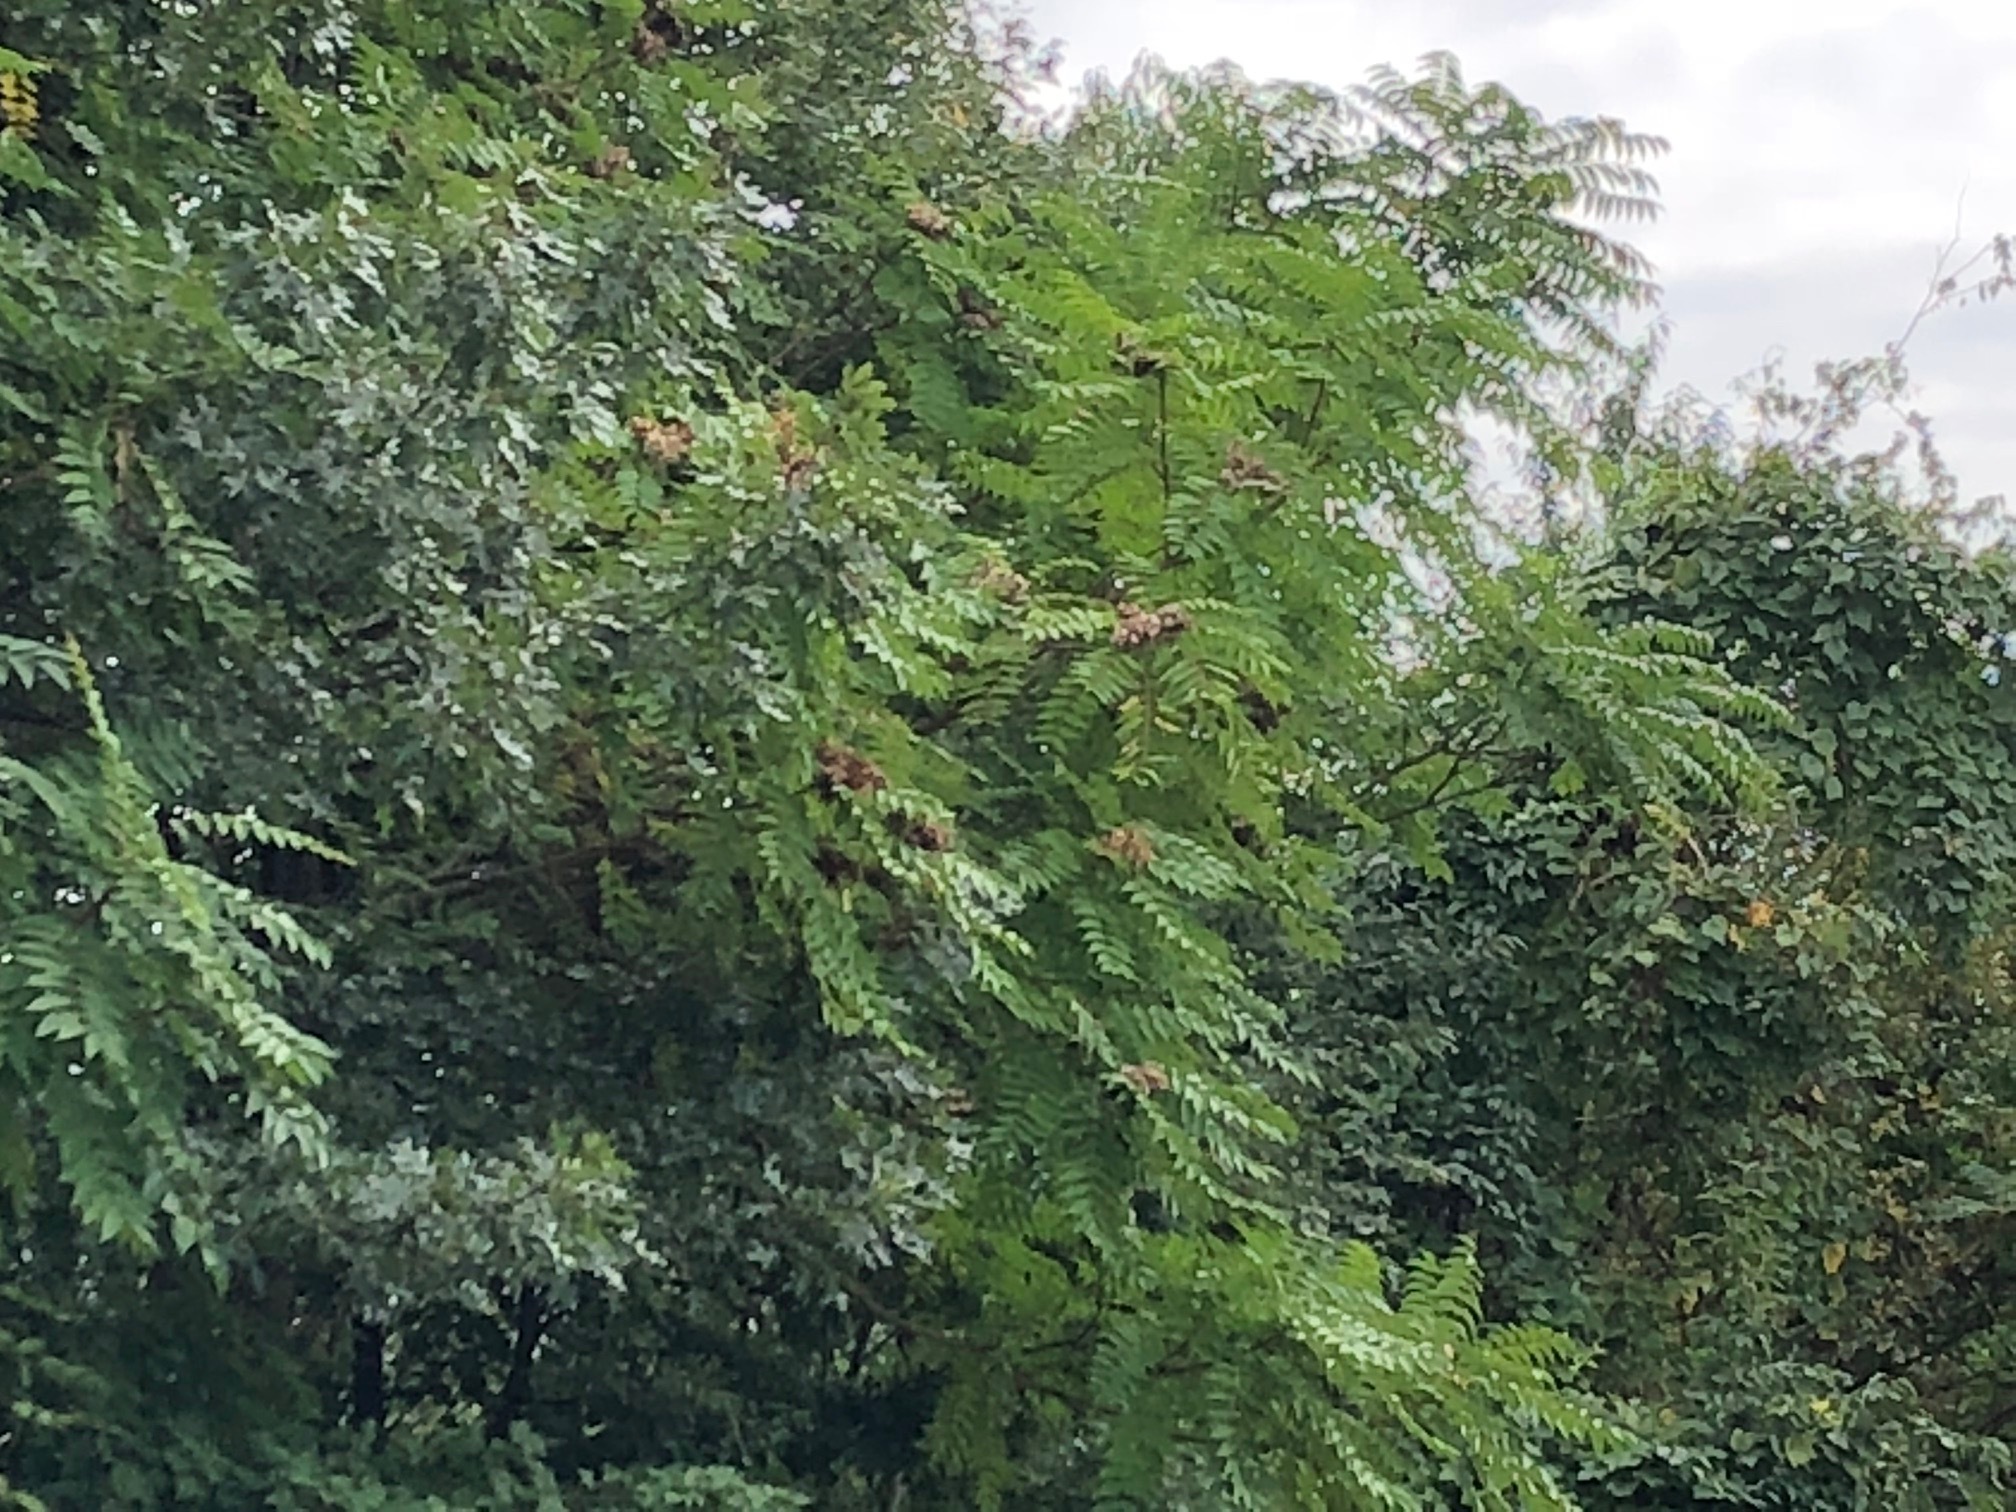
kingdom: Plantae
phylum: Tracheophyta
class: Magnoliopsida
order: Sapindales
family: Simaroubaceae
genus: Ailanthus
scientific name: Ailanthus altissima
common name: Tree-of-heaven
